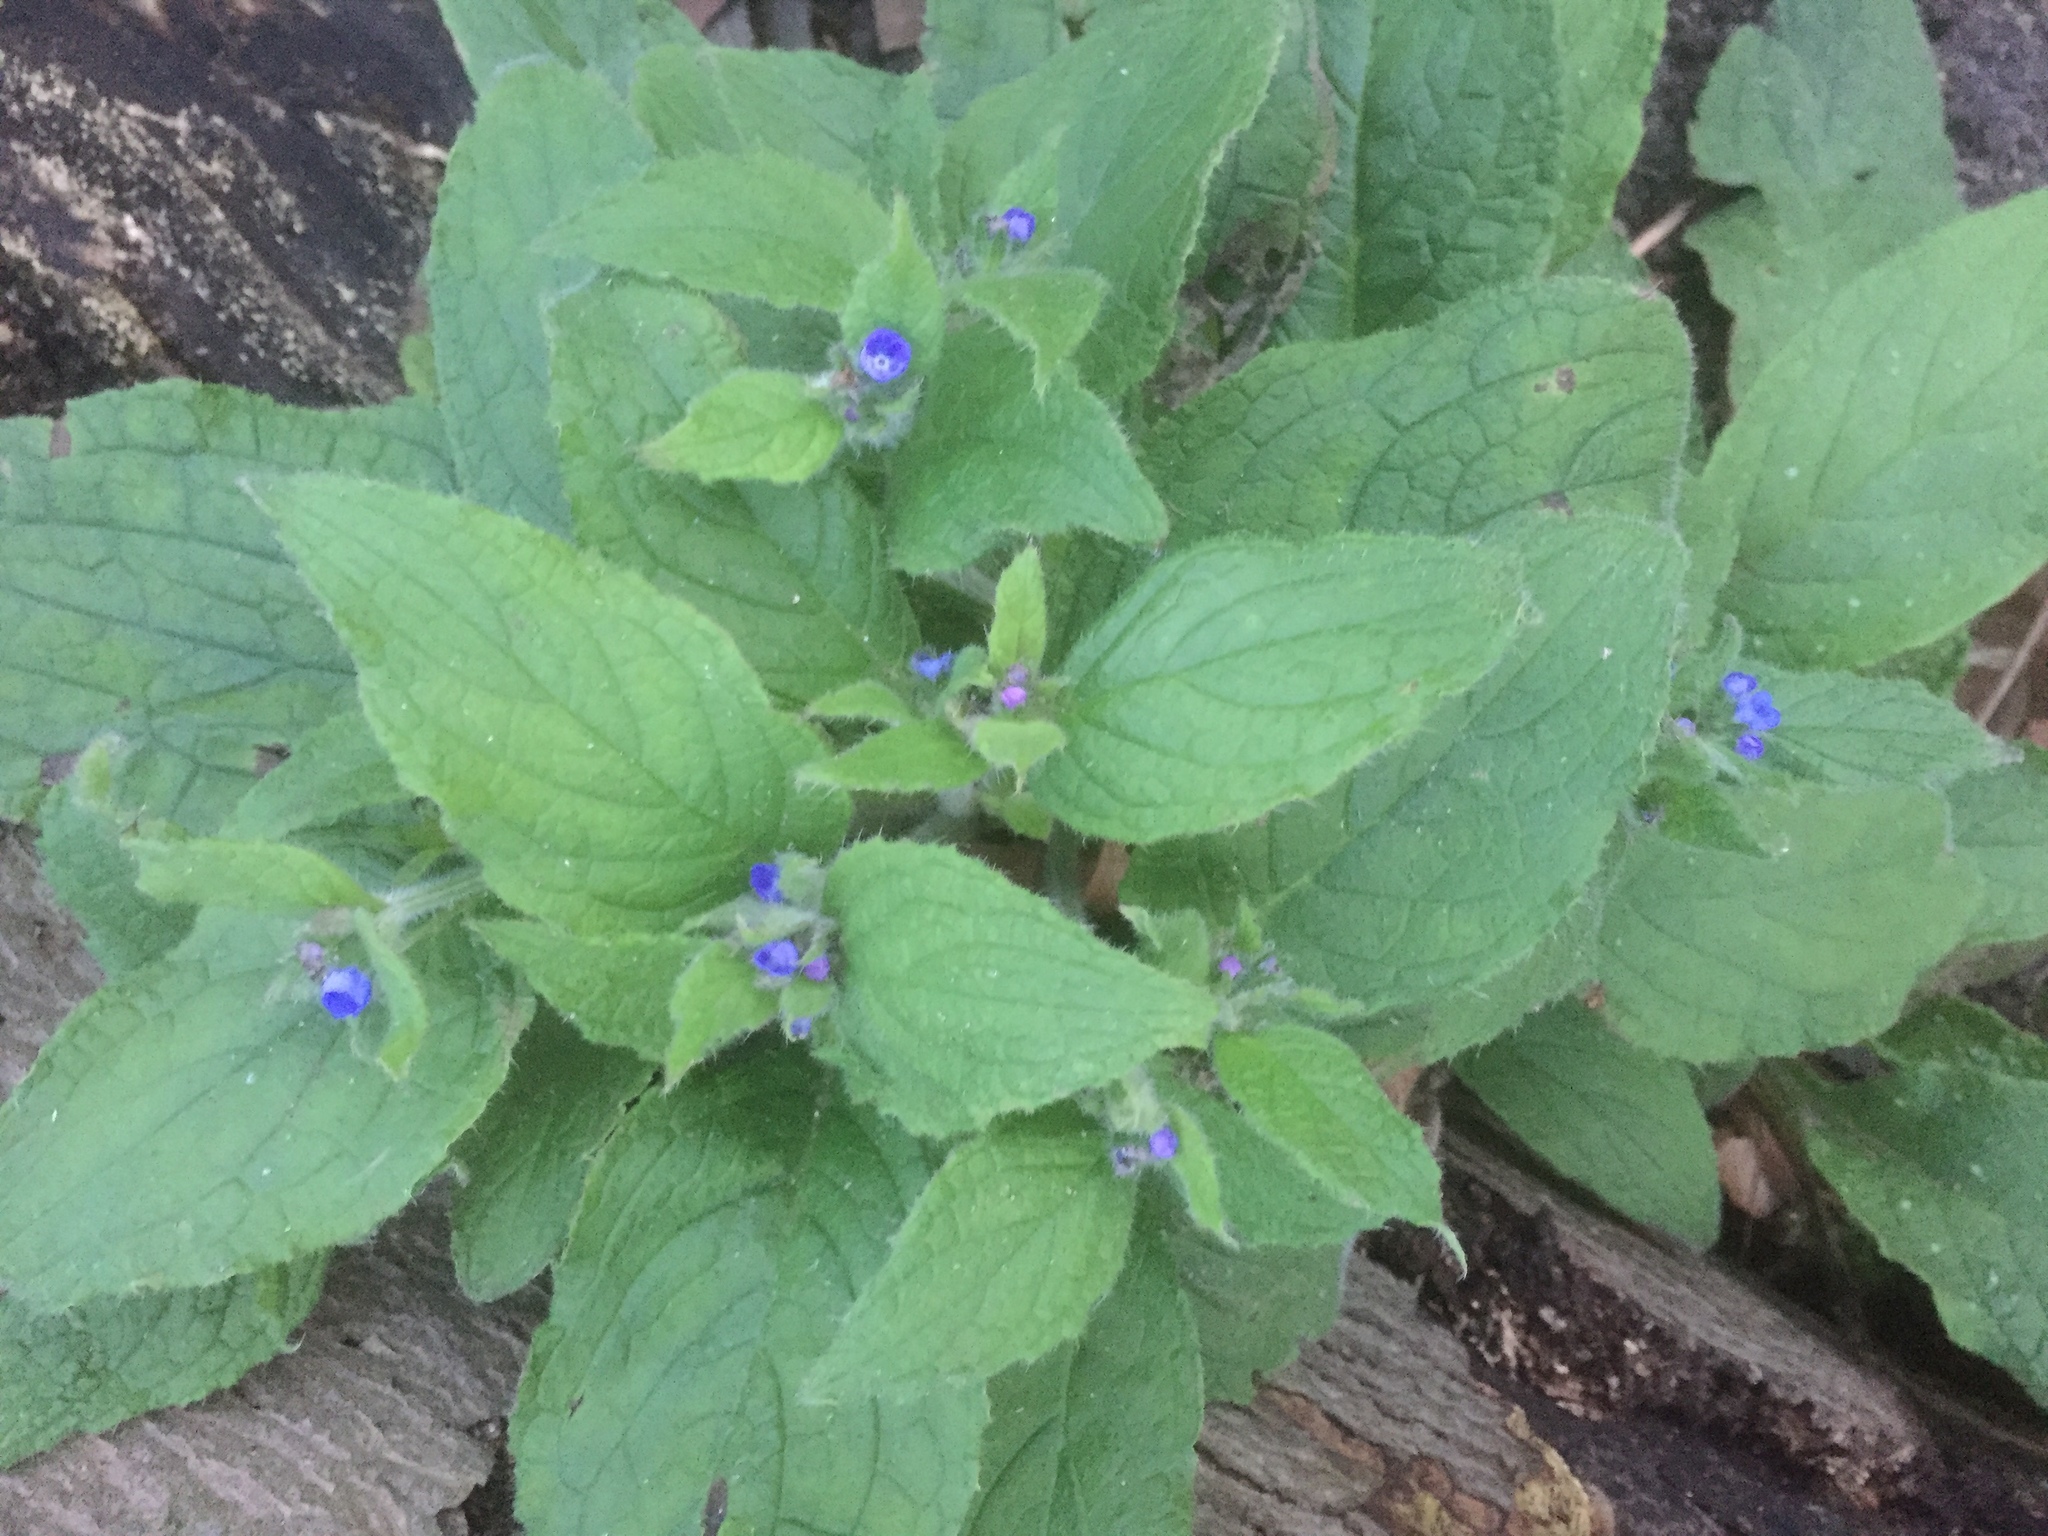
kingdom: Plantae
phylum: Tracheophyta
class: Magnoliopsida
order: Boraginales
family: Boraginaceae
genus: Pentaglottis
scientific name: Pentaglottis sempervirens
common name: Green alkanet
